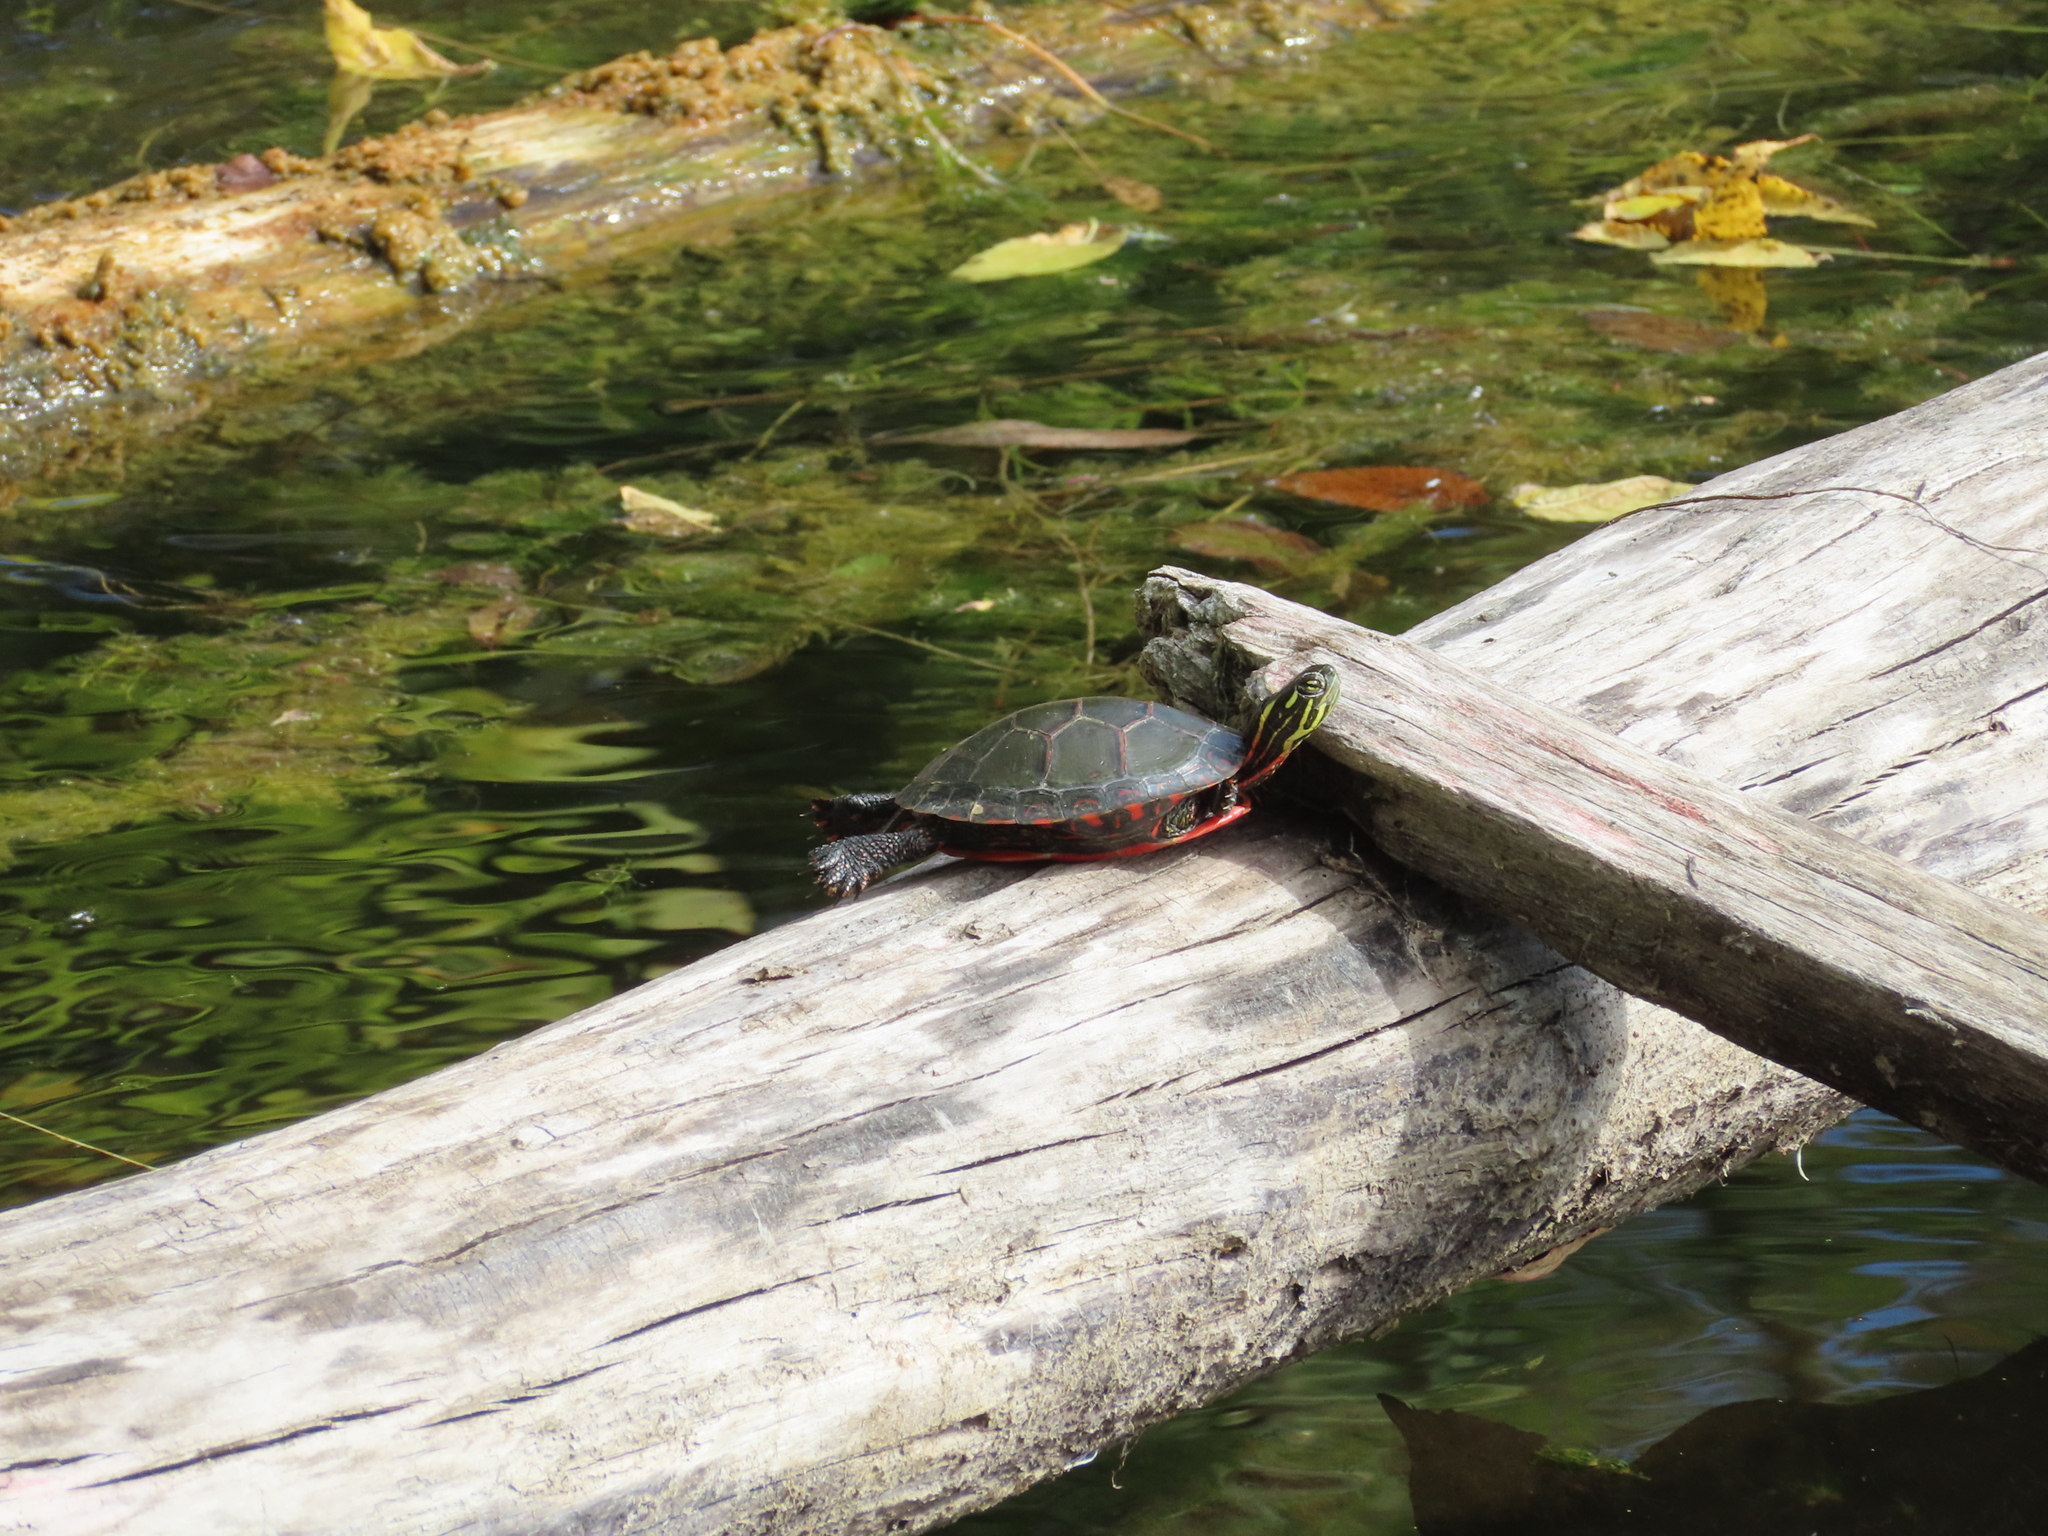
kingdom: Animalia
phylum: Chordata
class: Testudines
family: Emydidae
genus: Chrysemys
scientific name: Chrysemys picta
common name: Painted turtle
